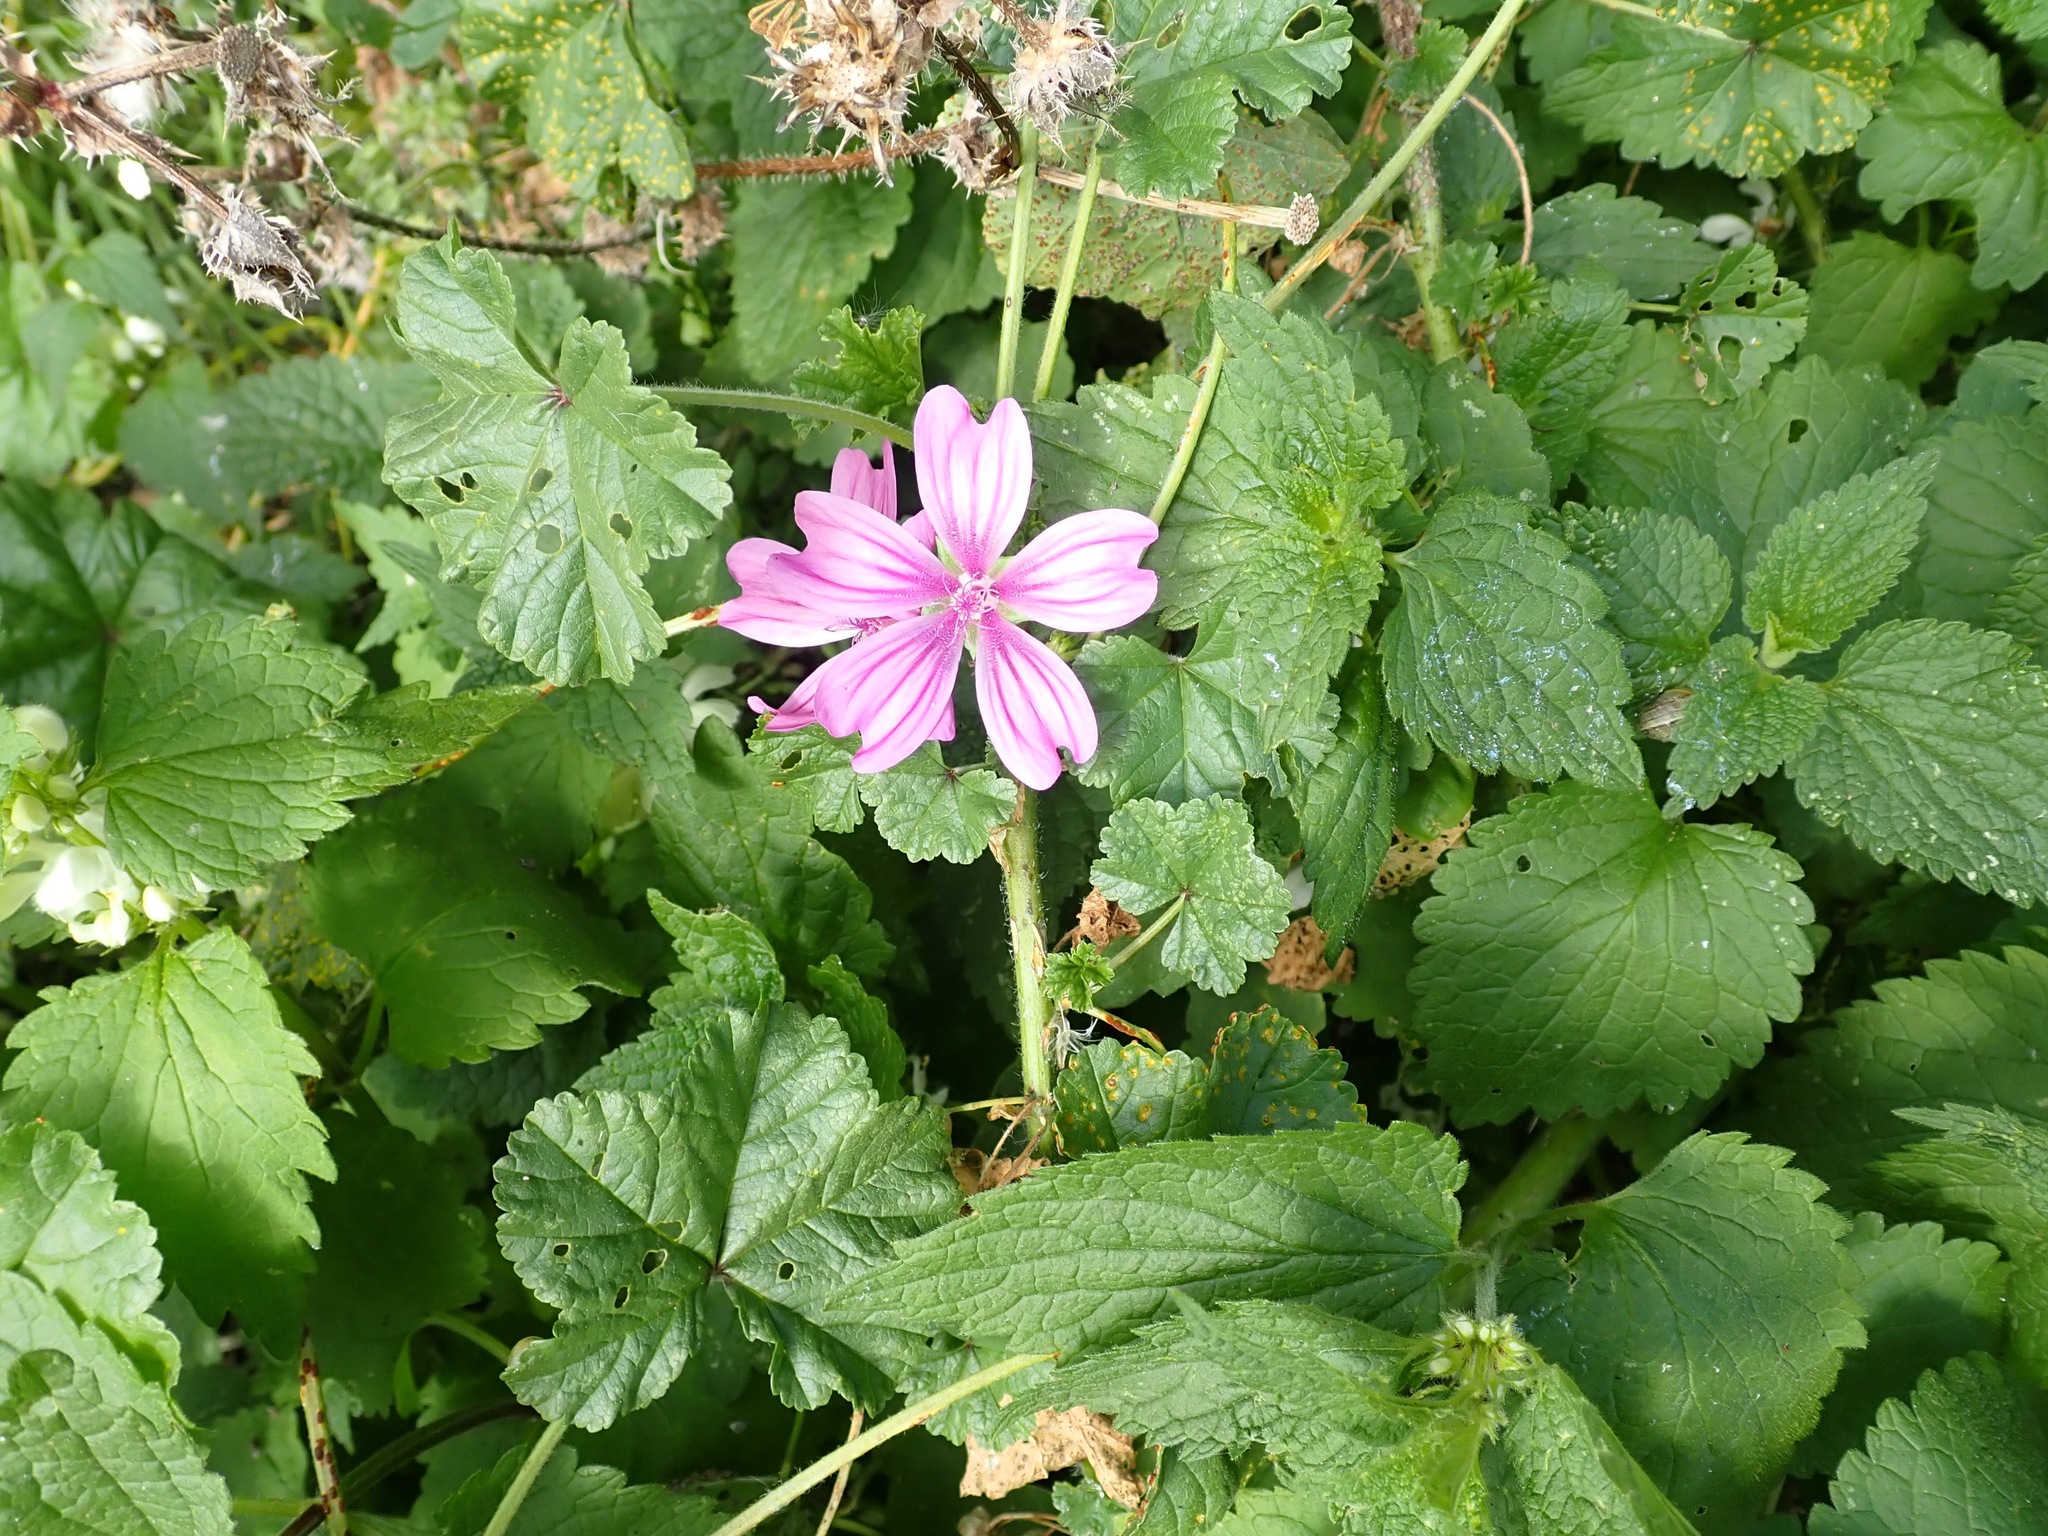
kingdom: Plantae
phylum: Tracheophyta
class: Magnoliopsida
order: Malvales
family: Malvaceae
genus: Malva
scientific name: Malva sylvestris
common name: Common mallow
